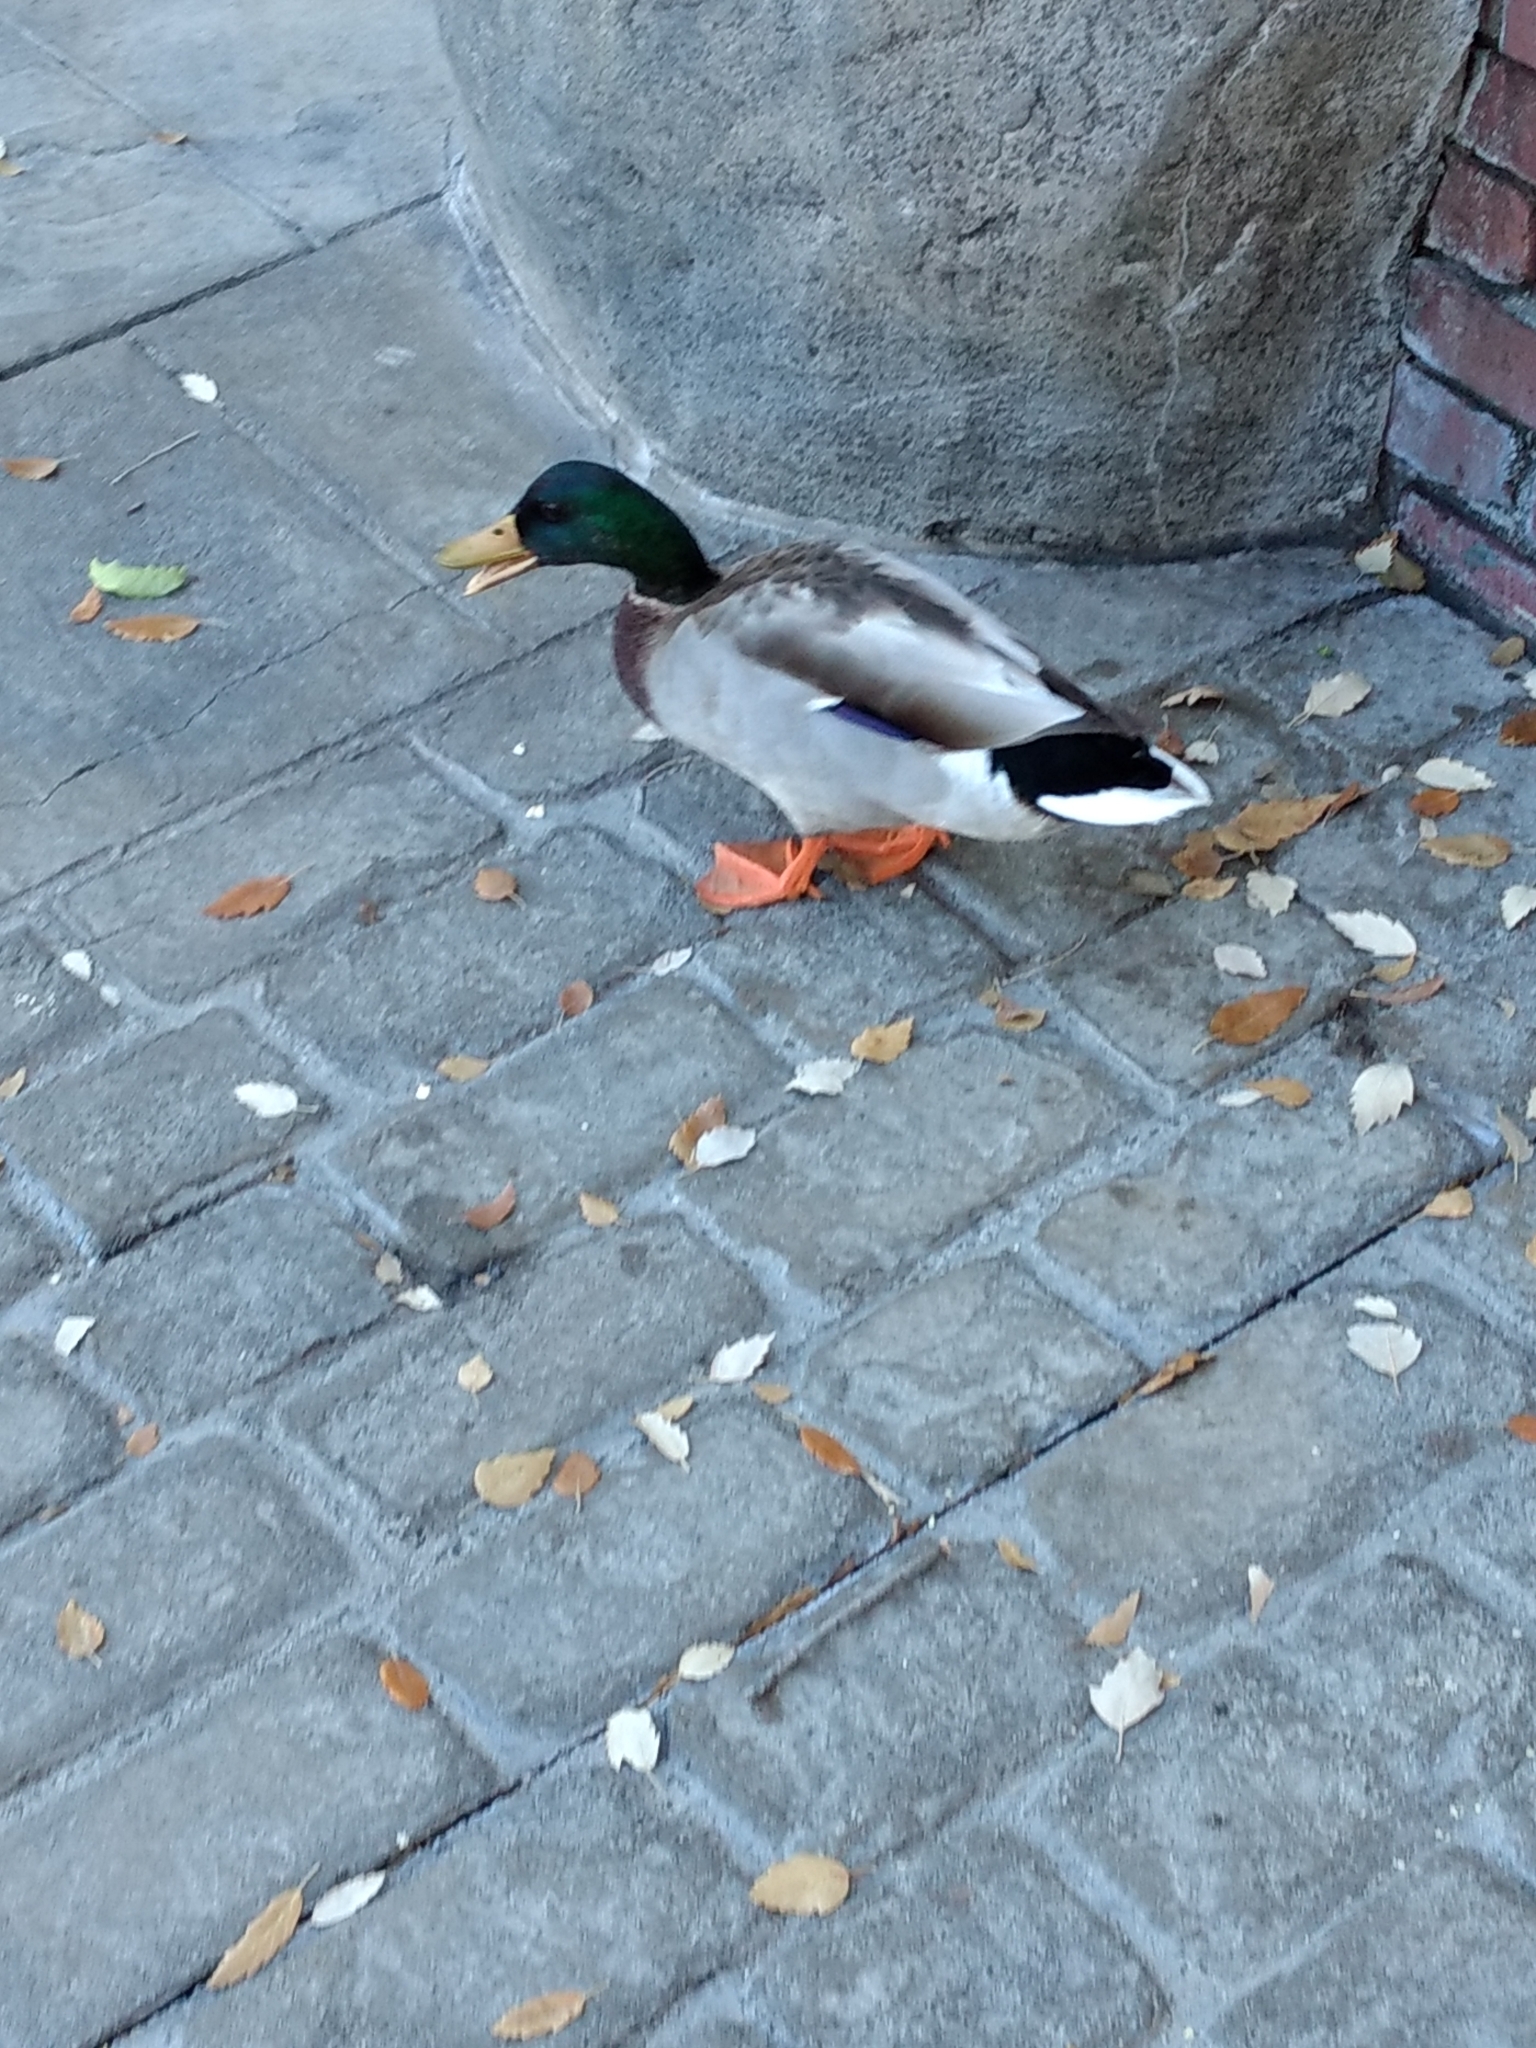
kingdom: Animalia
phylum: Chordata
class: Aves
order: Anseriformes
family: Anatidae
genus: Anas
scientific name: Anas platyrhynchos
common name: Mallard
